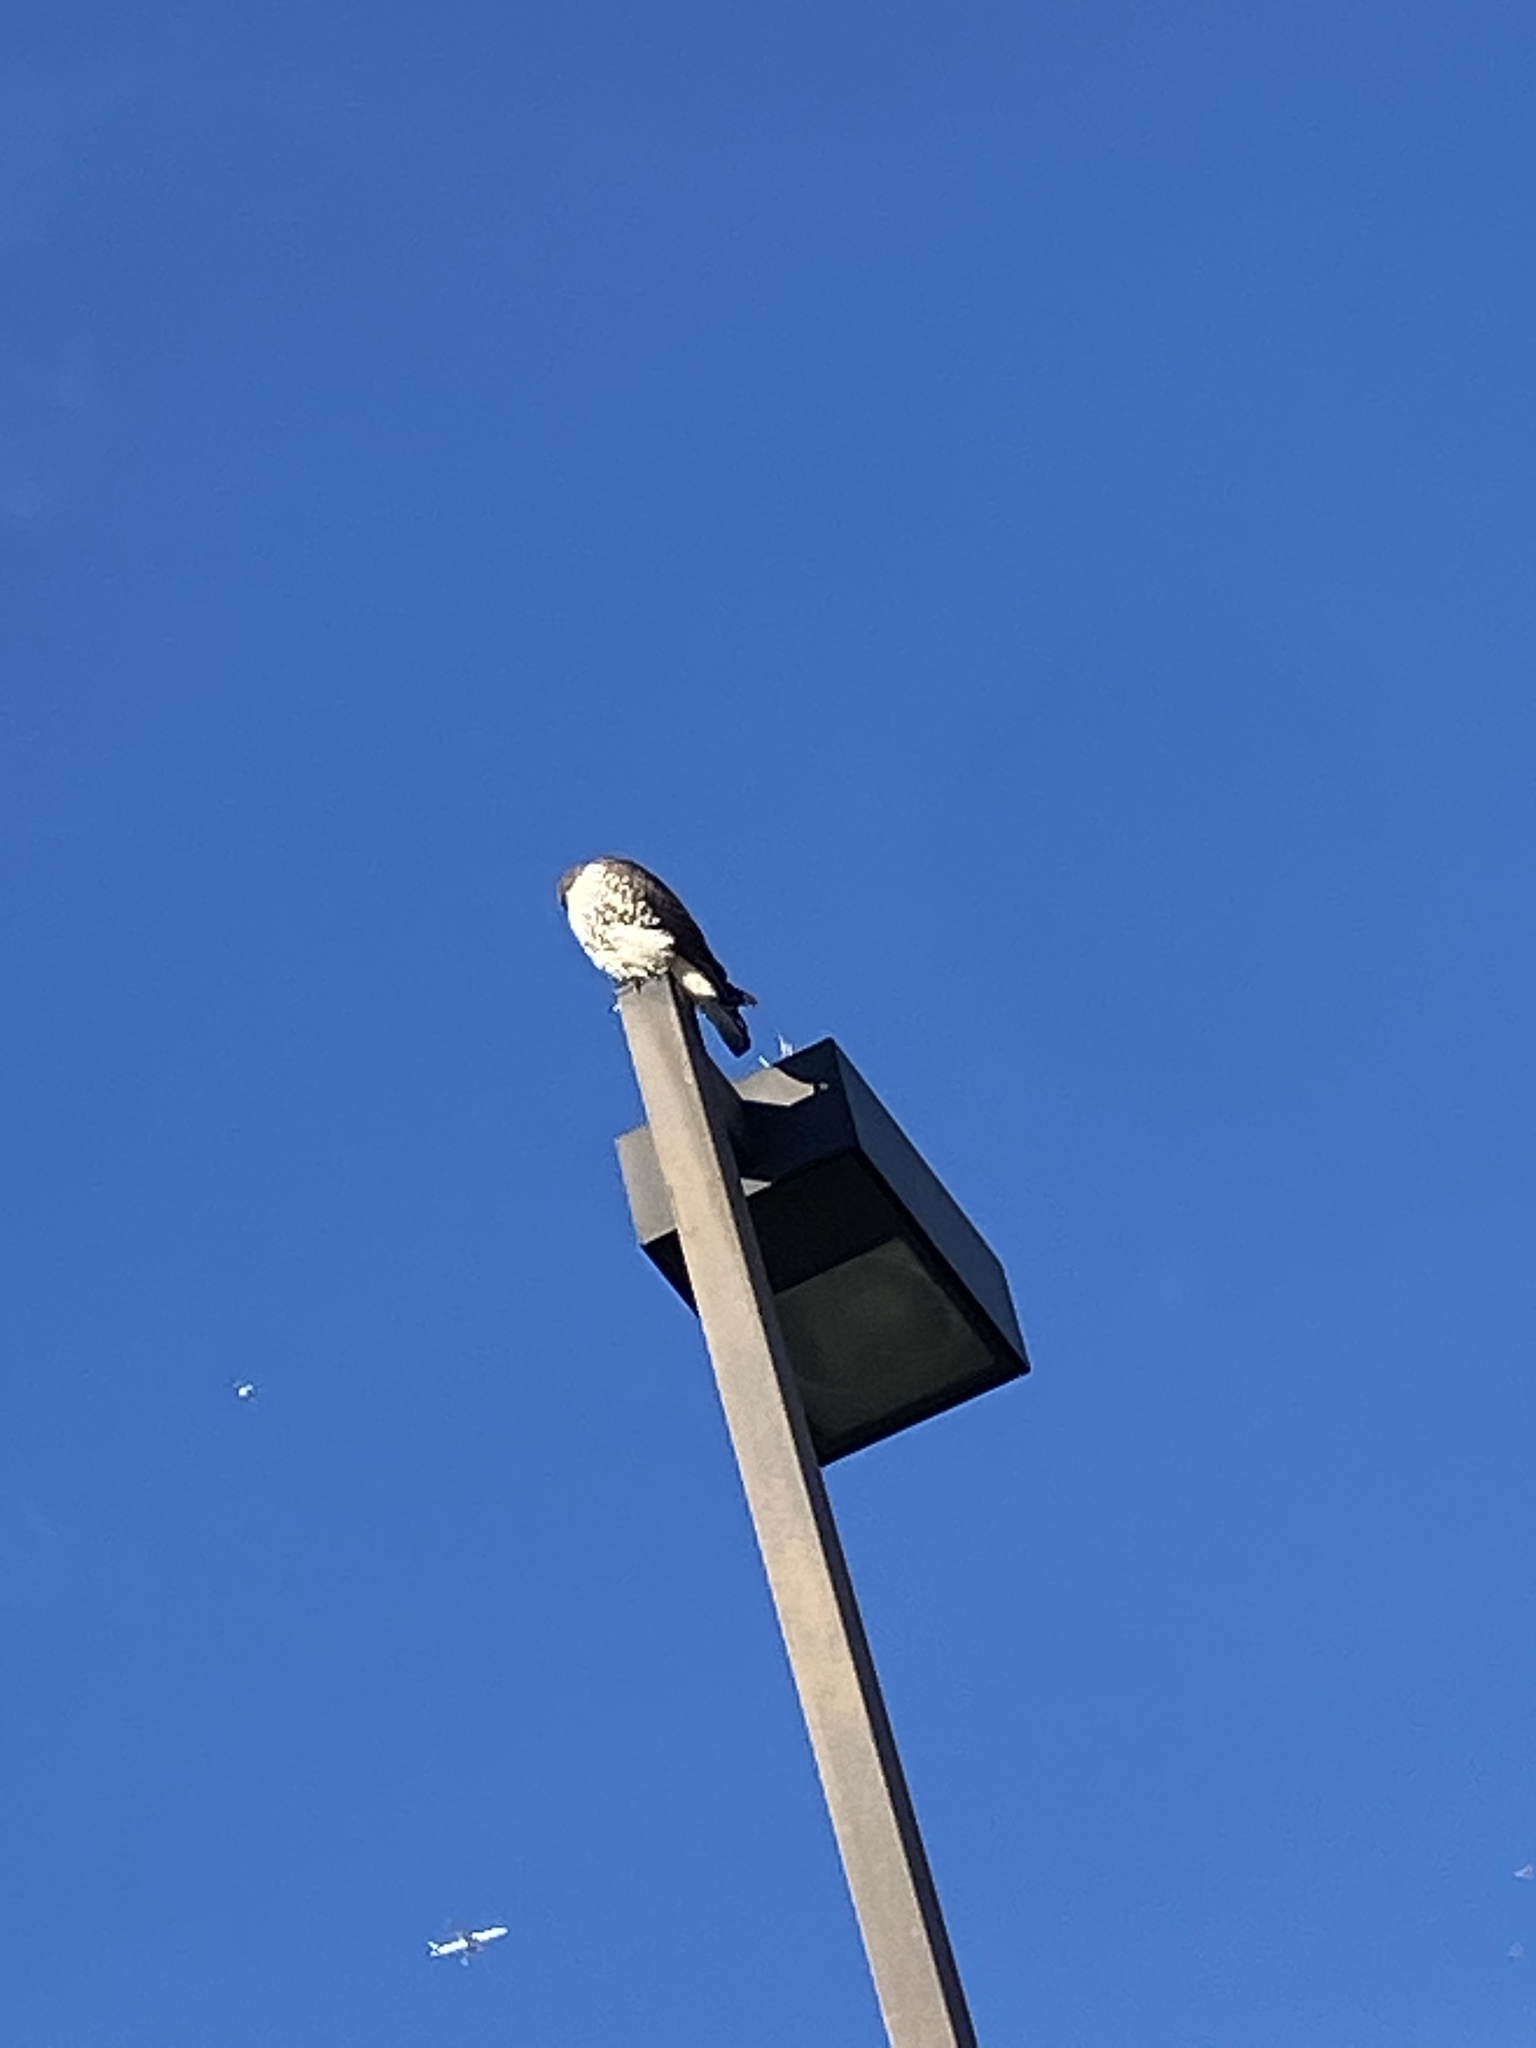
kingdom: Animalia
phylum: Chordata
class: Aves
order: Accipitriformes
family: Accipitridae
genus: Buteo
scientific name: Buteo jamaicensis
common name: Red-tailed hawk
